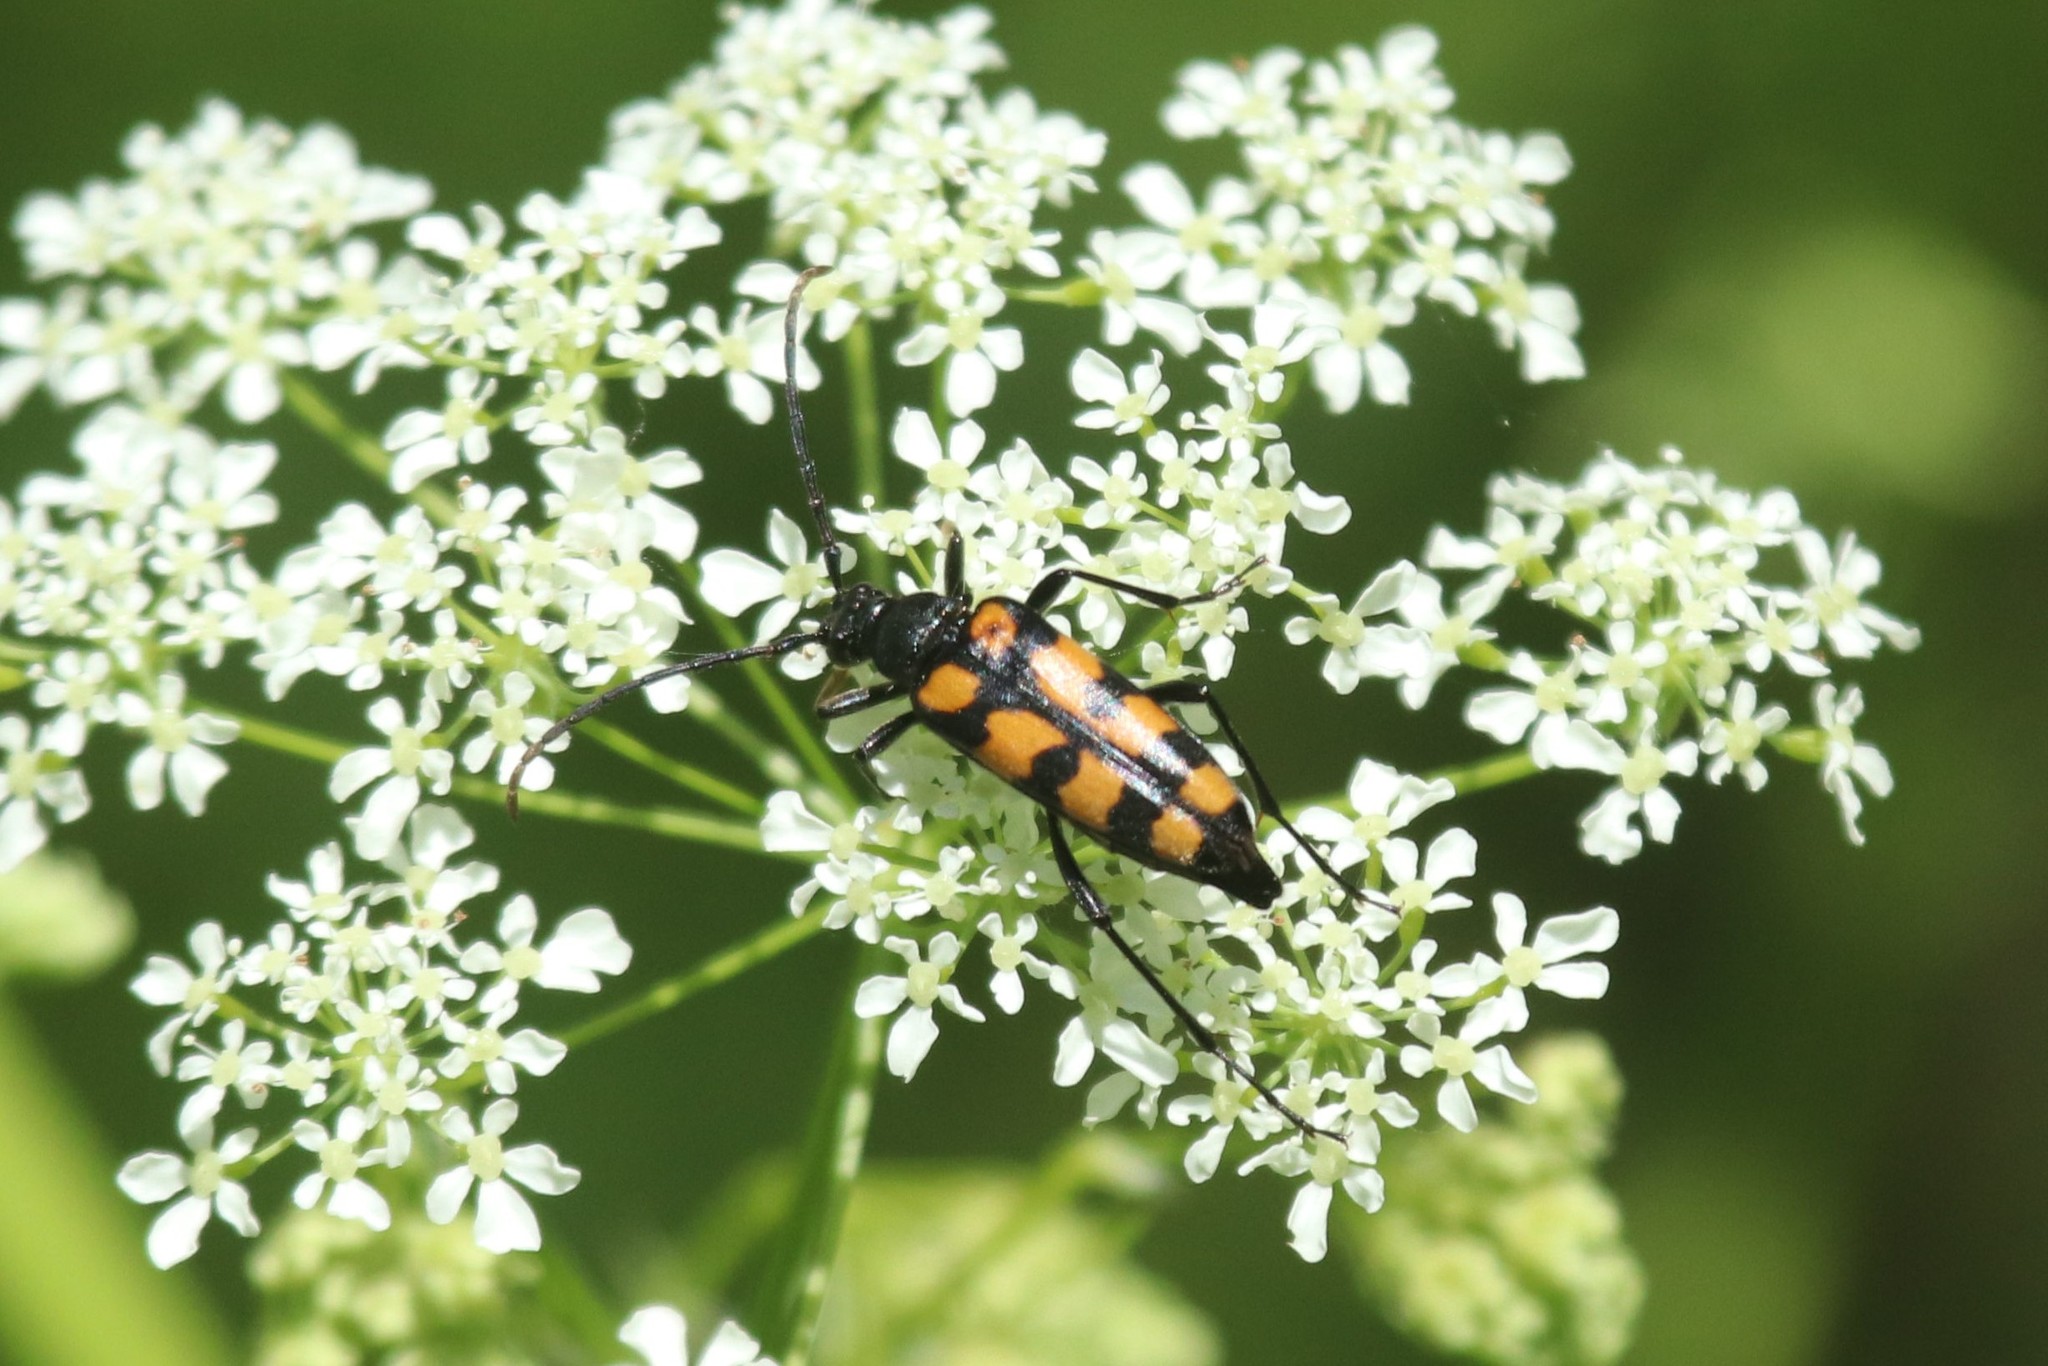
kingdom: Animalia
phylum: Arthropoda
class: Insecta
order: Coleoptera
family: Cerambycidae
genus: Leptura
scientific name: Leptura quadrifasciata
